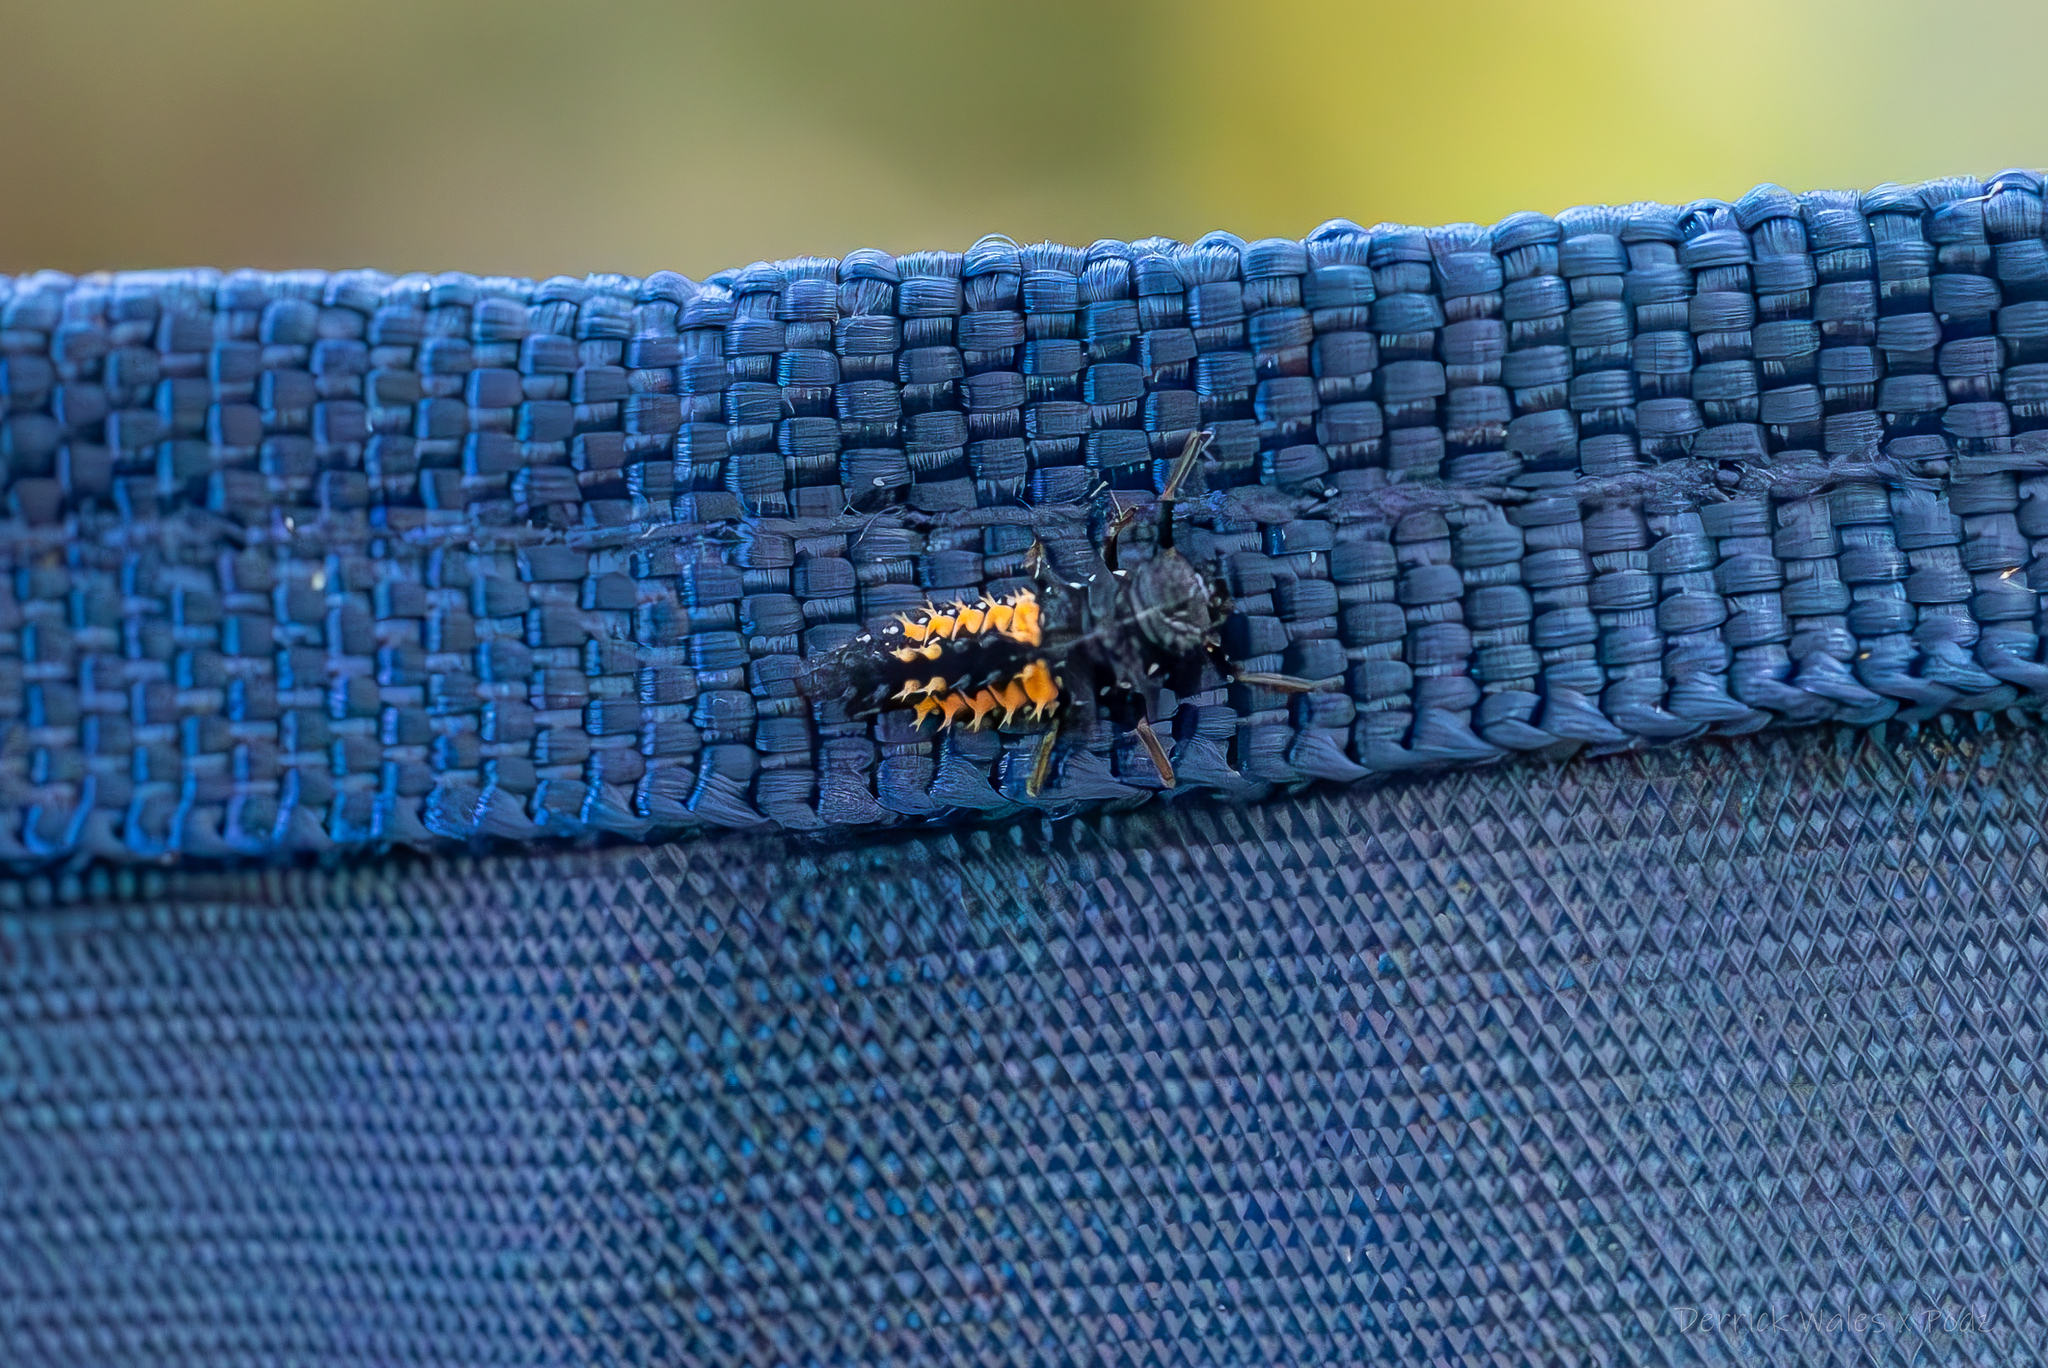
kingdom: Animalia
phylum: Arthropoda
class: Insecta
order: Coleoptera
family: Coccinellidae
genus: Harmonia
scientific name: Harmonia axyridis
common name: Harlequin ladybird
